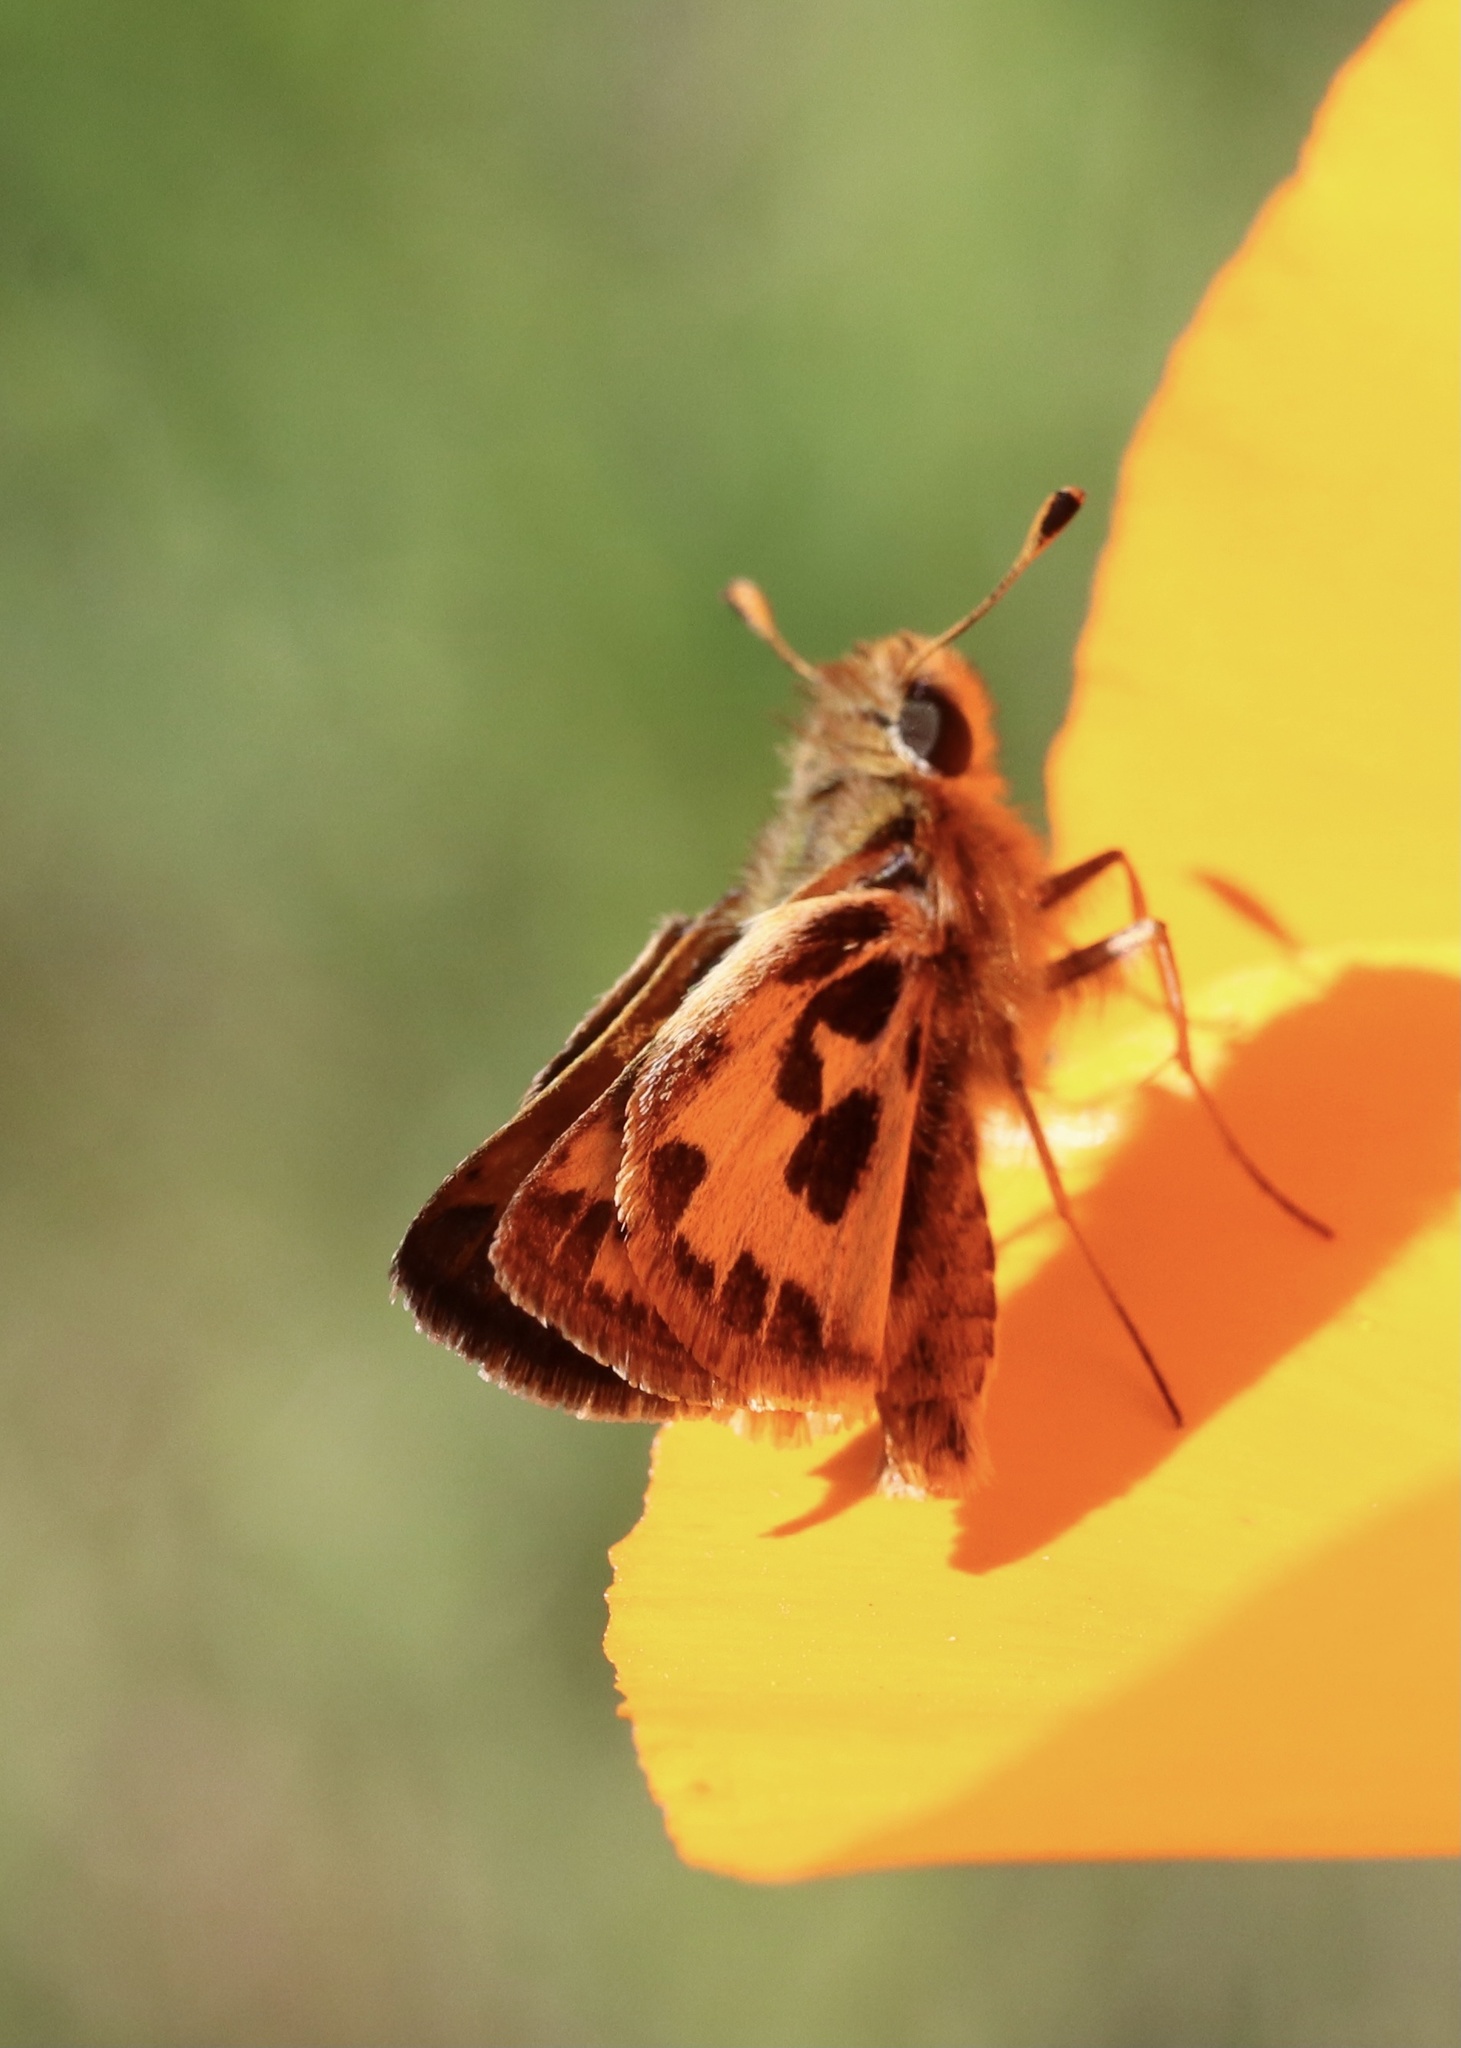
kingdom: Animalia
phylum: Arthropoda
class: Insecta
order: Lepidoptera
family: Hesperiidae
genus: Hylephila
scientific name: Hylephila fasciolata
